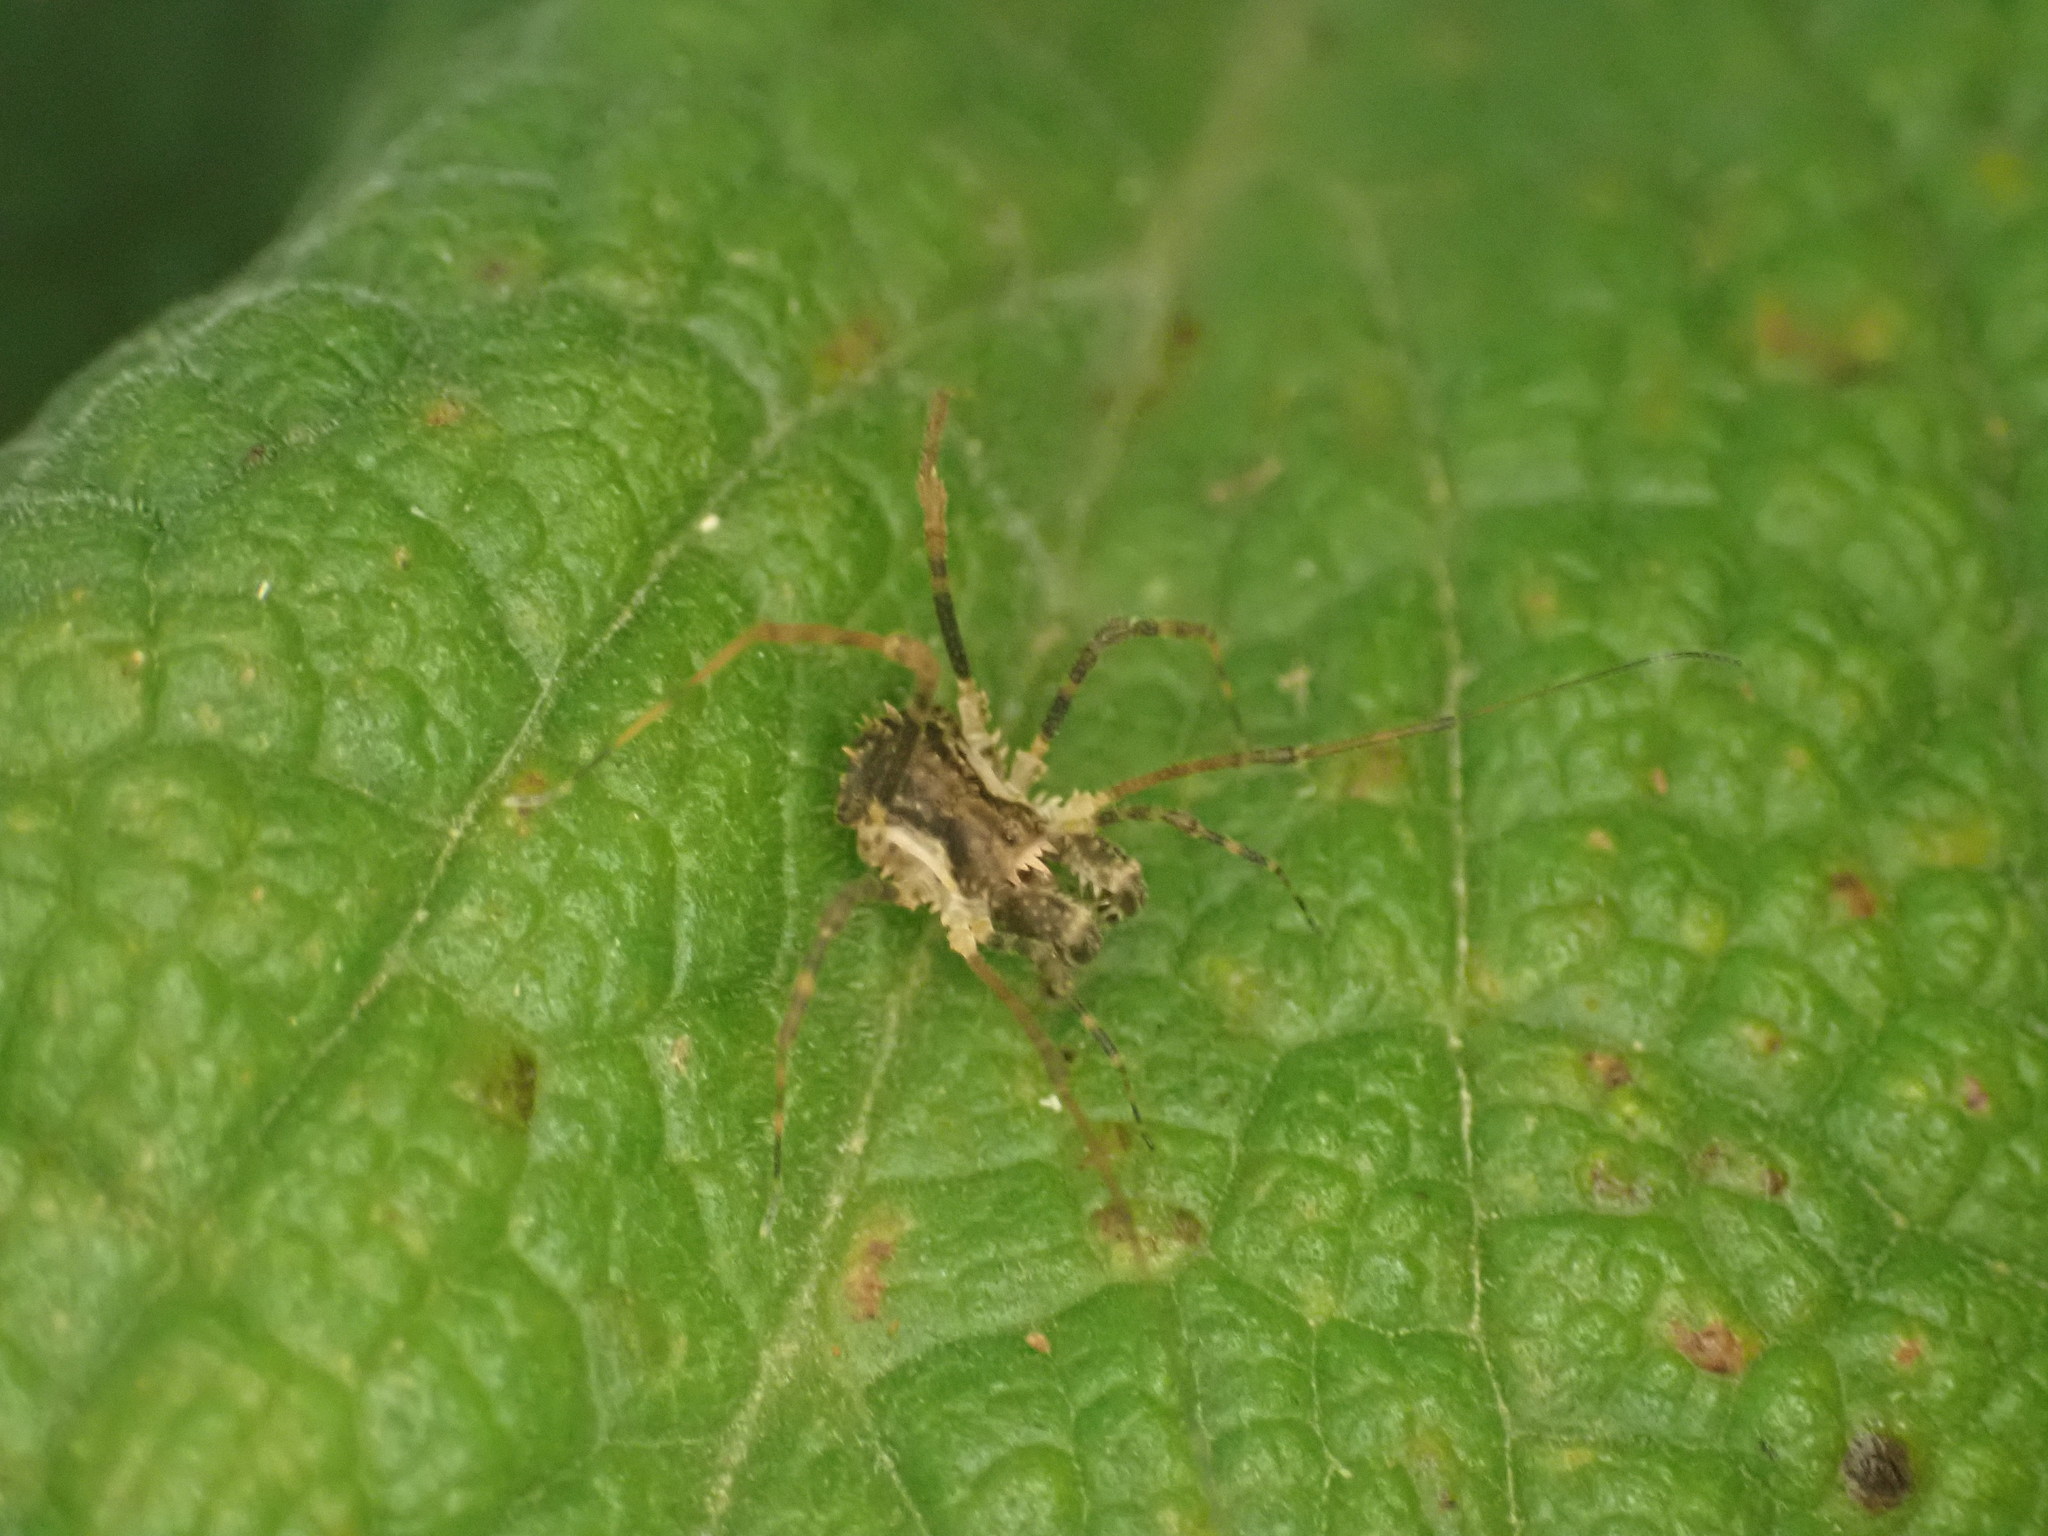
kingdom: Animalia
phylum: Arthropoda
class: Arachnida
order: Opiliones
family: Triaenonychidae
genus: Algidia
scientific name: Algidia nigriflava
